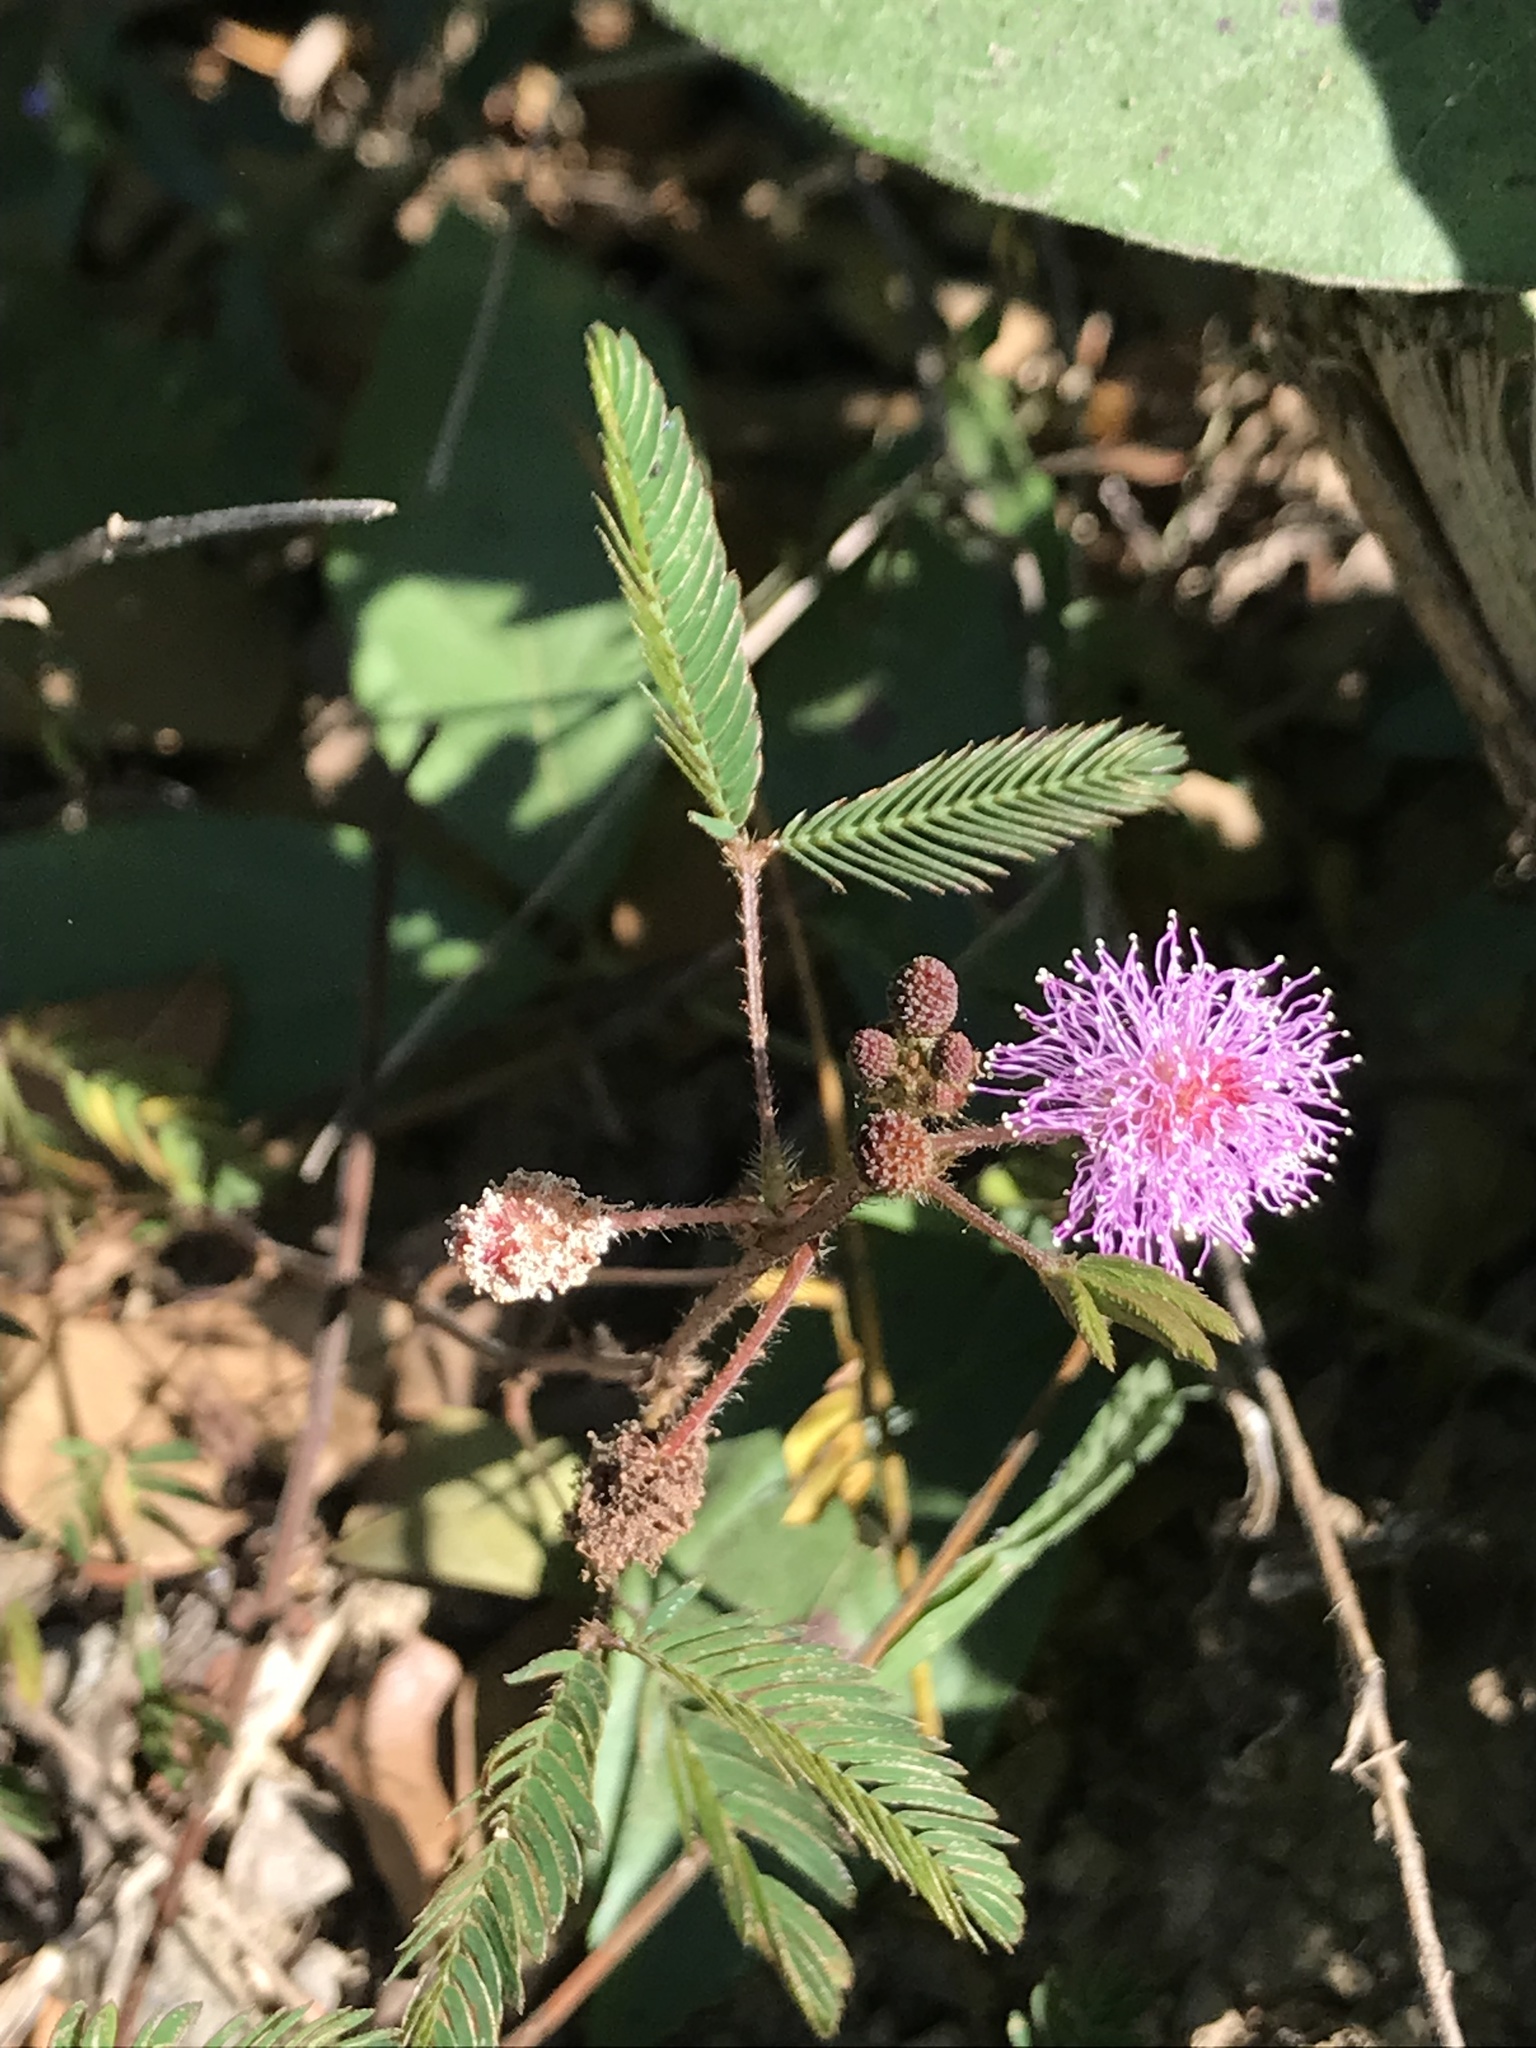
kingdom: Plantae
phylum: Tracheophyta
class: Magnoliopsida
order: Fabales
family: Fabaceae
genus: Mimosa
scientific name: Mimosa pudica
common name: Sensitive plant
